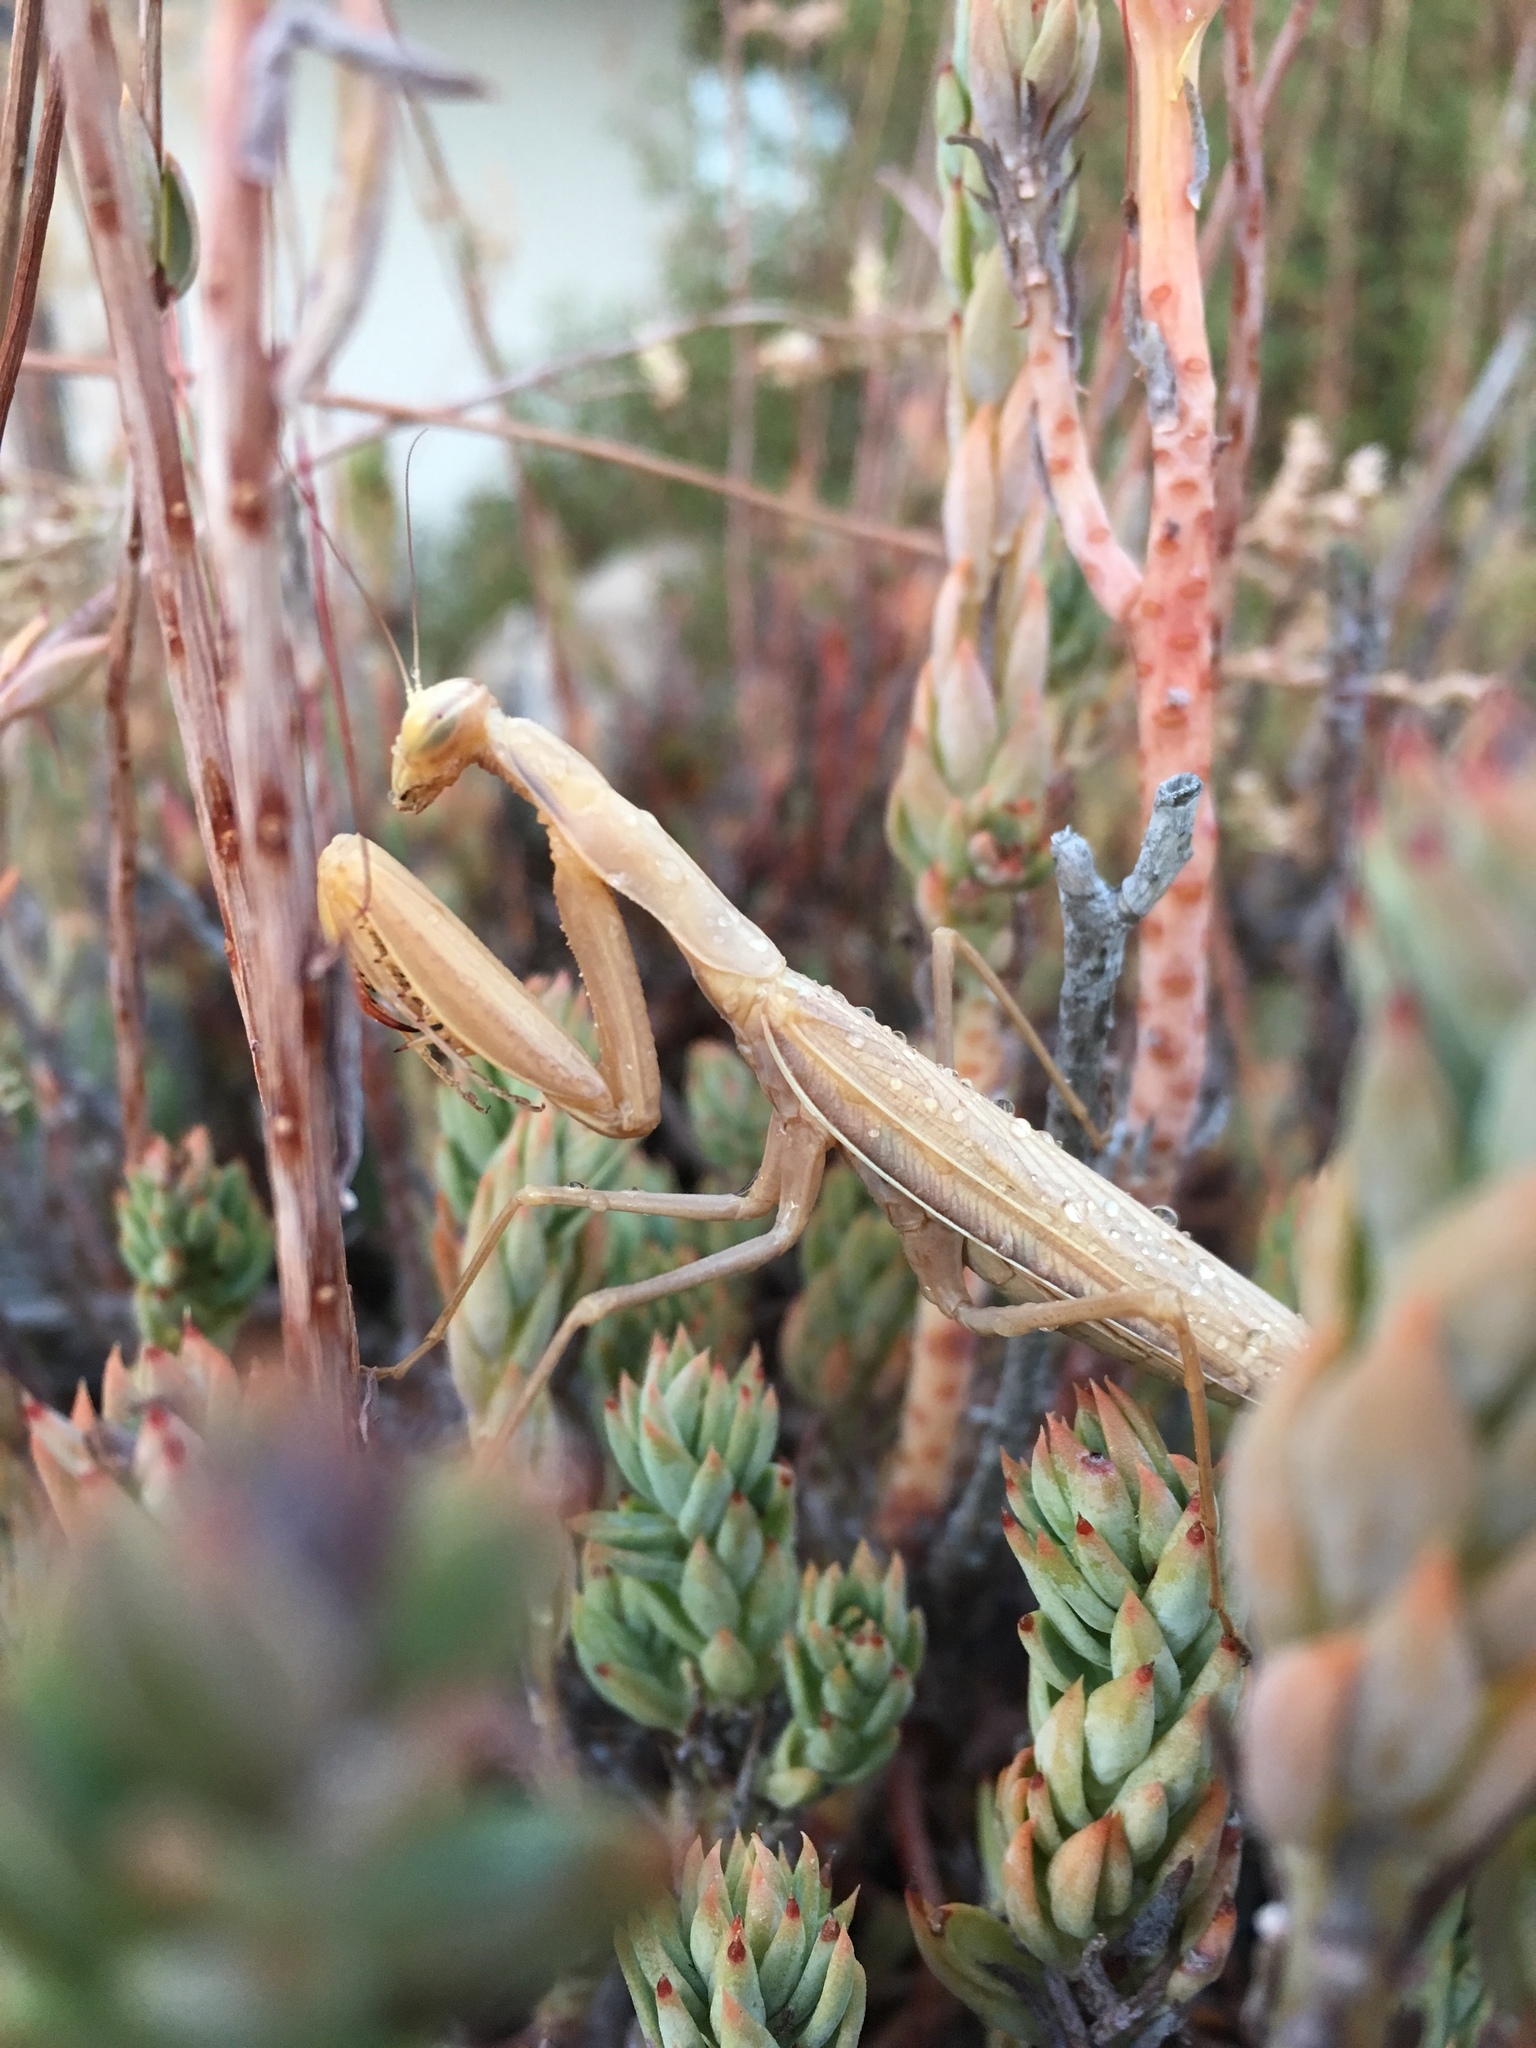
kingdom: Animalia
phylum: Arthropoda
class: Insecta
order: Mantodea
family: Mantidae
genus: Mantis
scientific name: Mantis religiosa
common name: Praying mantis
